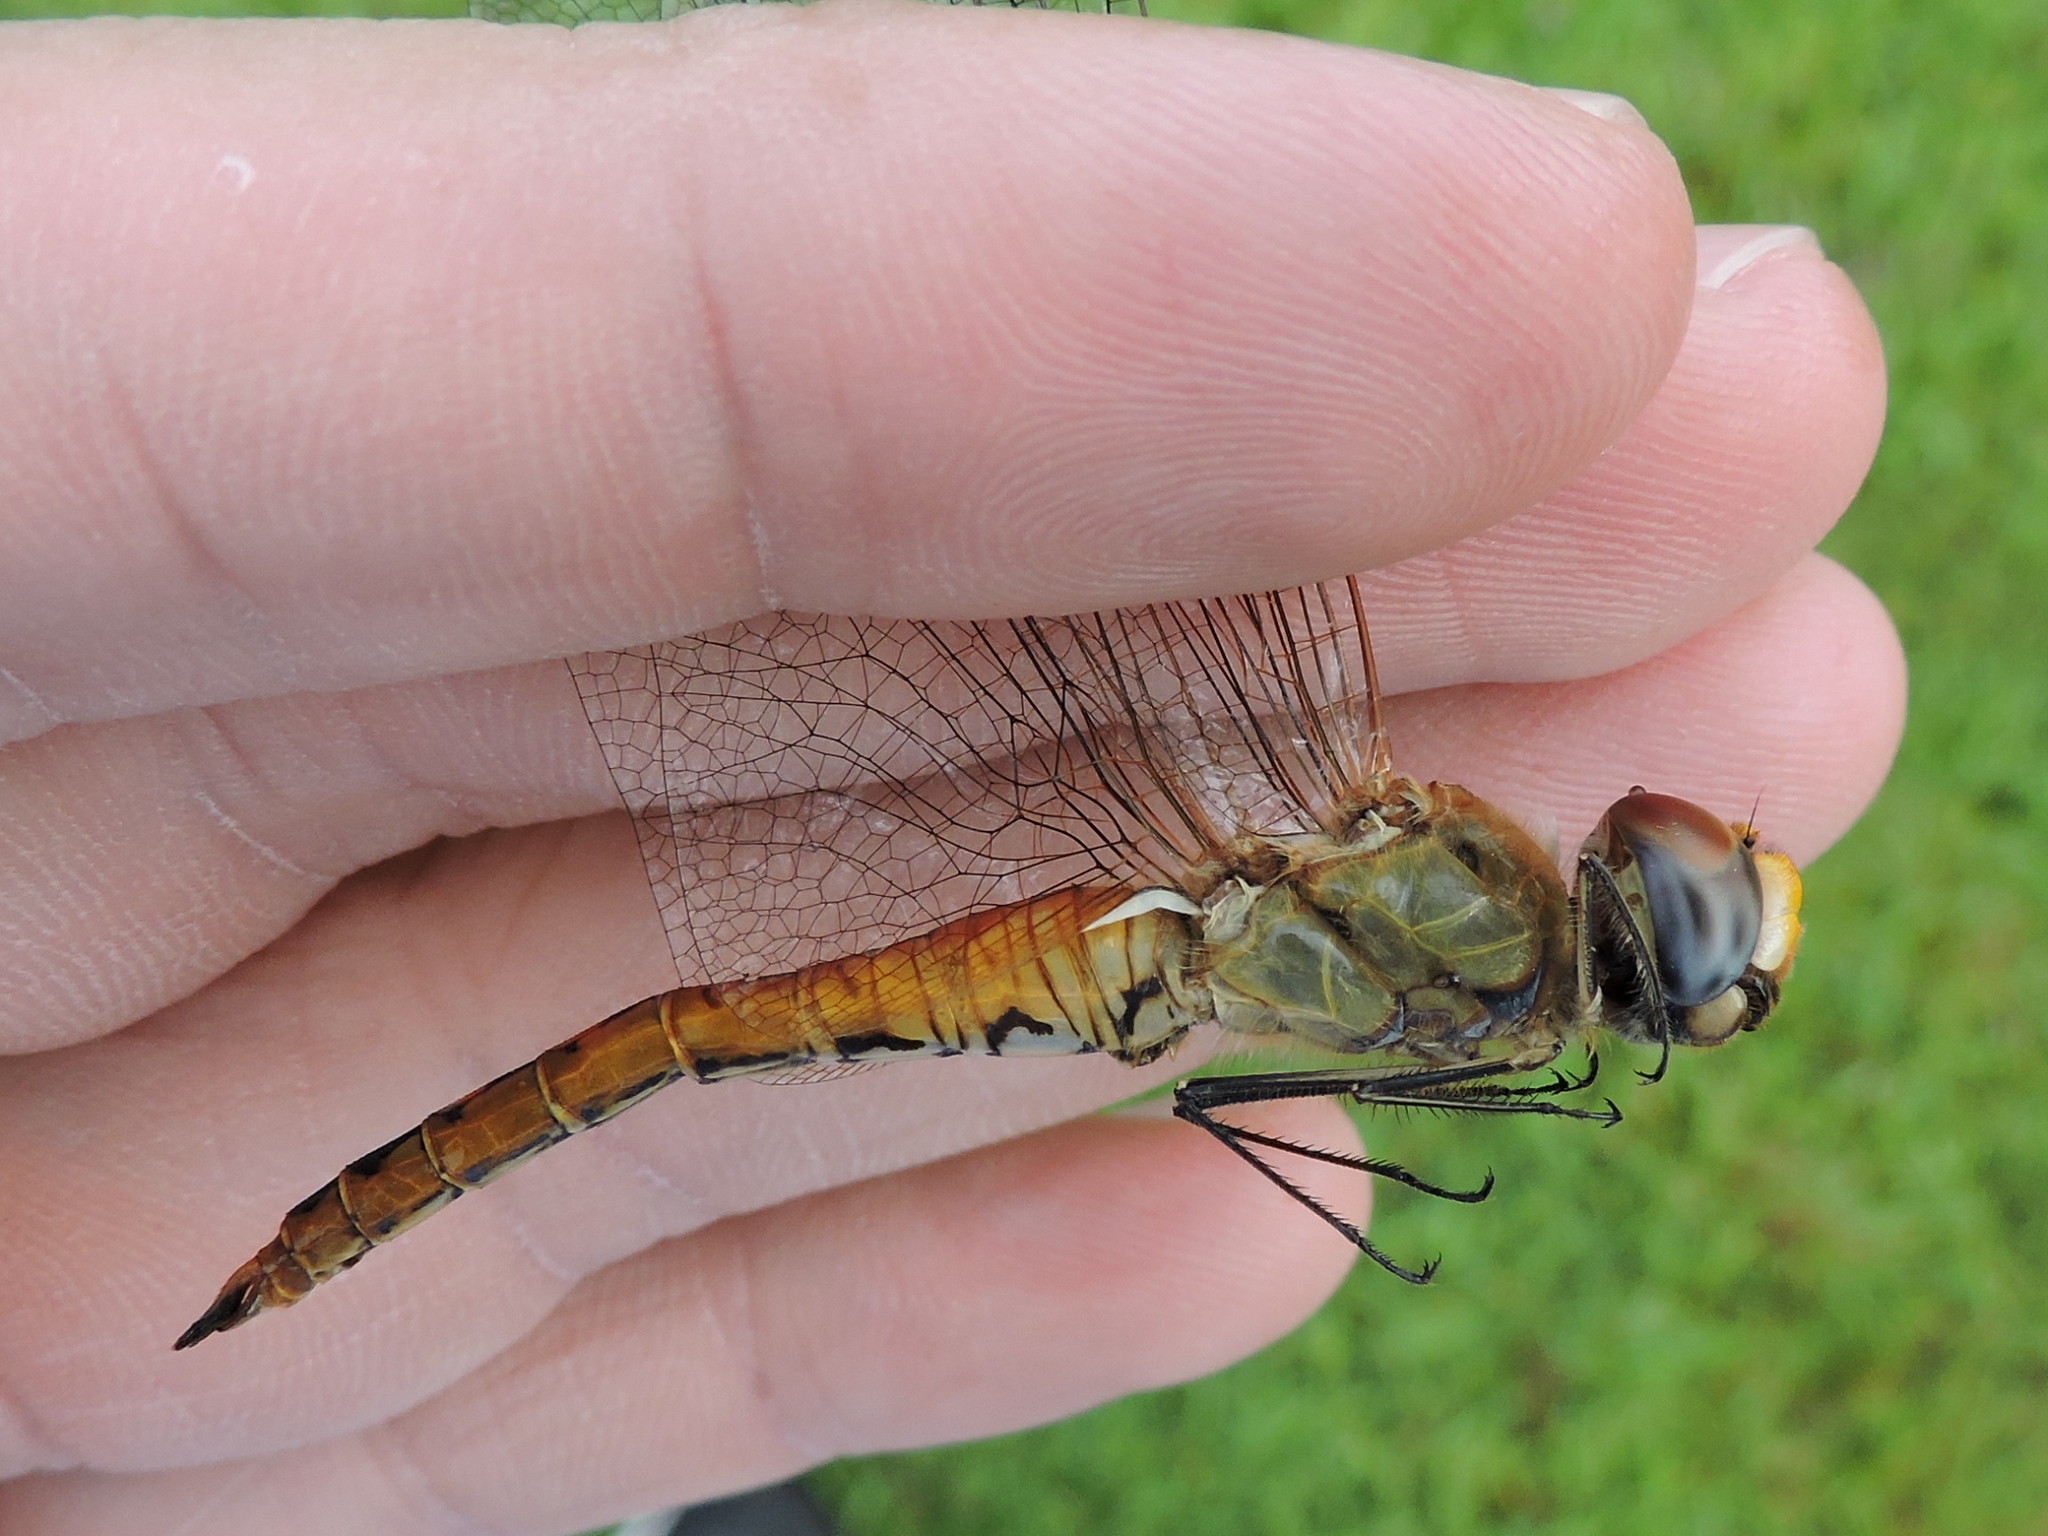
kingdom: Animalia
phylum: Arthropoda
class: Insecta
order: Odonata
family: Libellulidae
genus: Pantala
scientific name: Pantala flavescens
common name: Wandering glider
